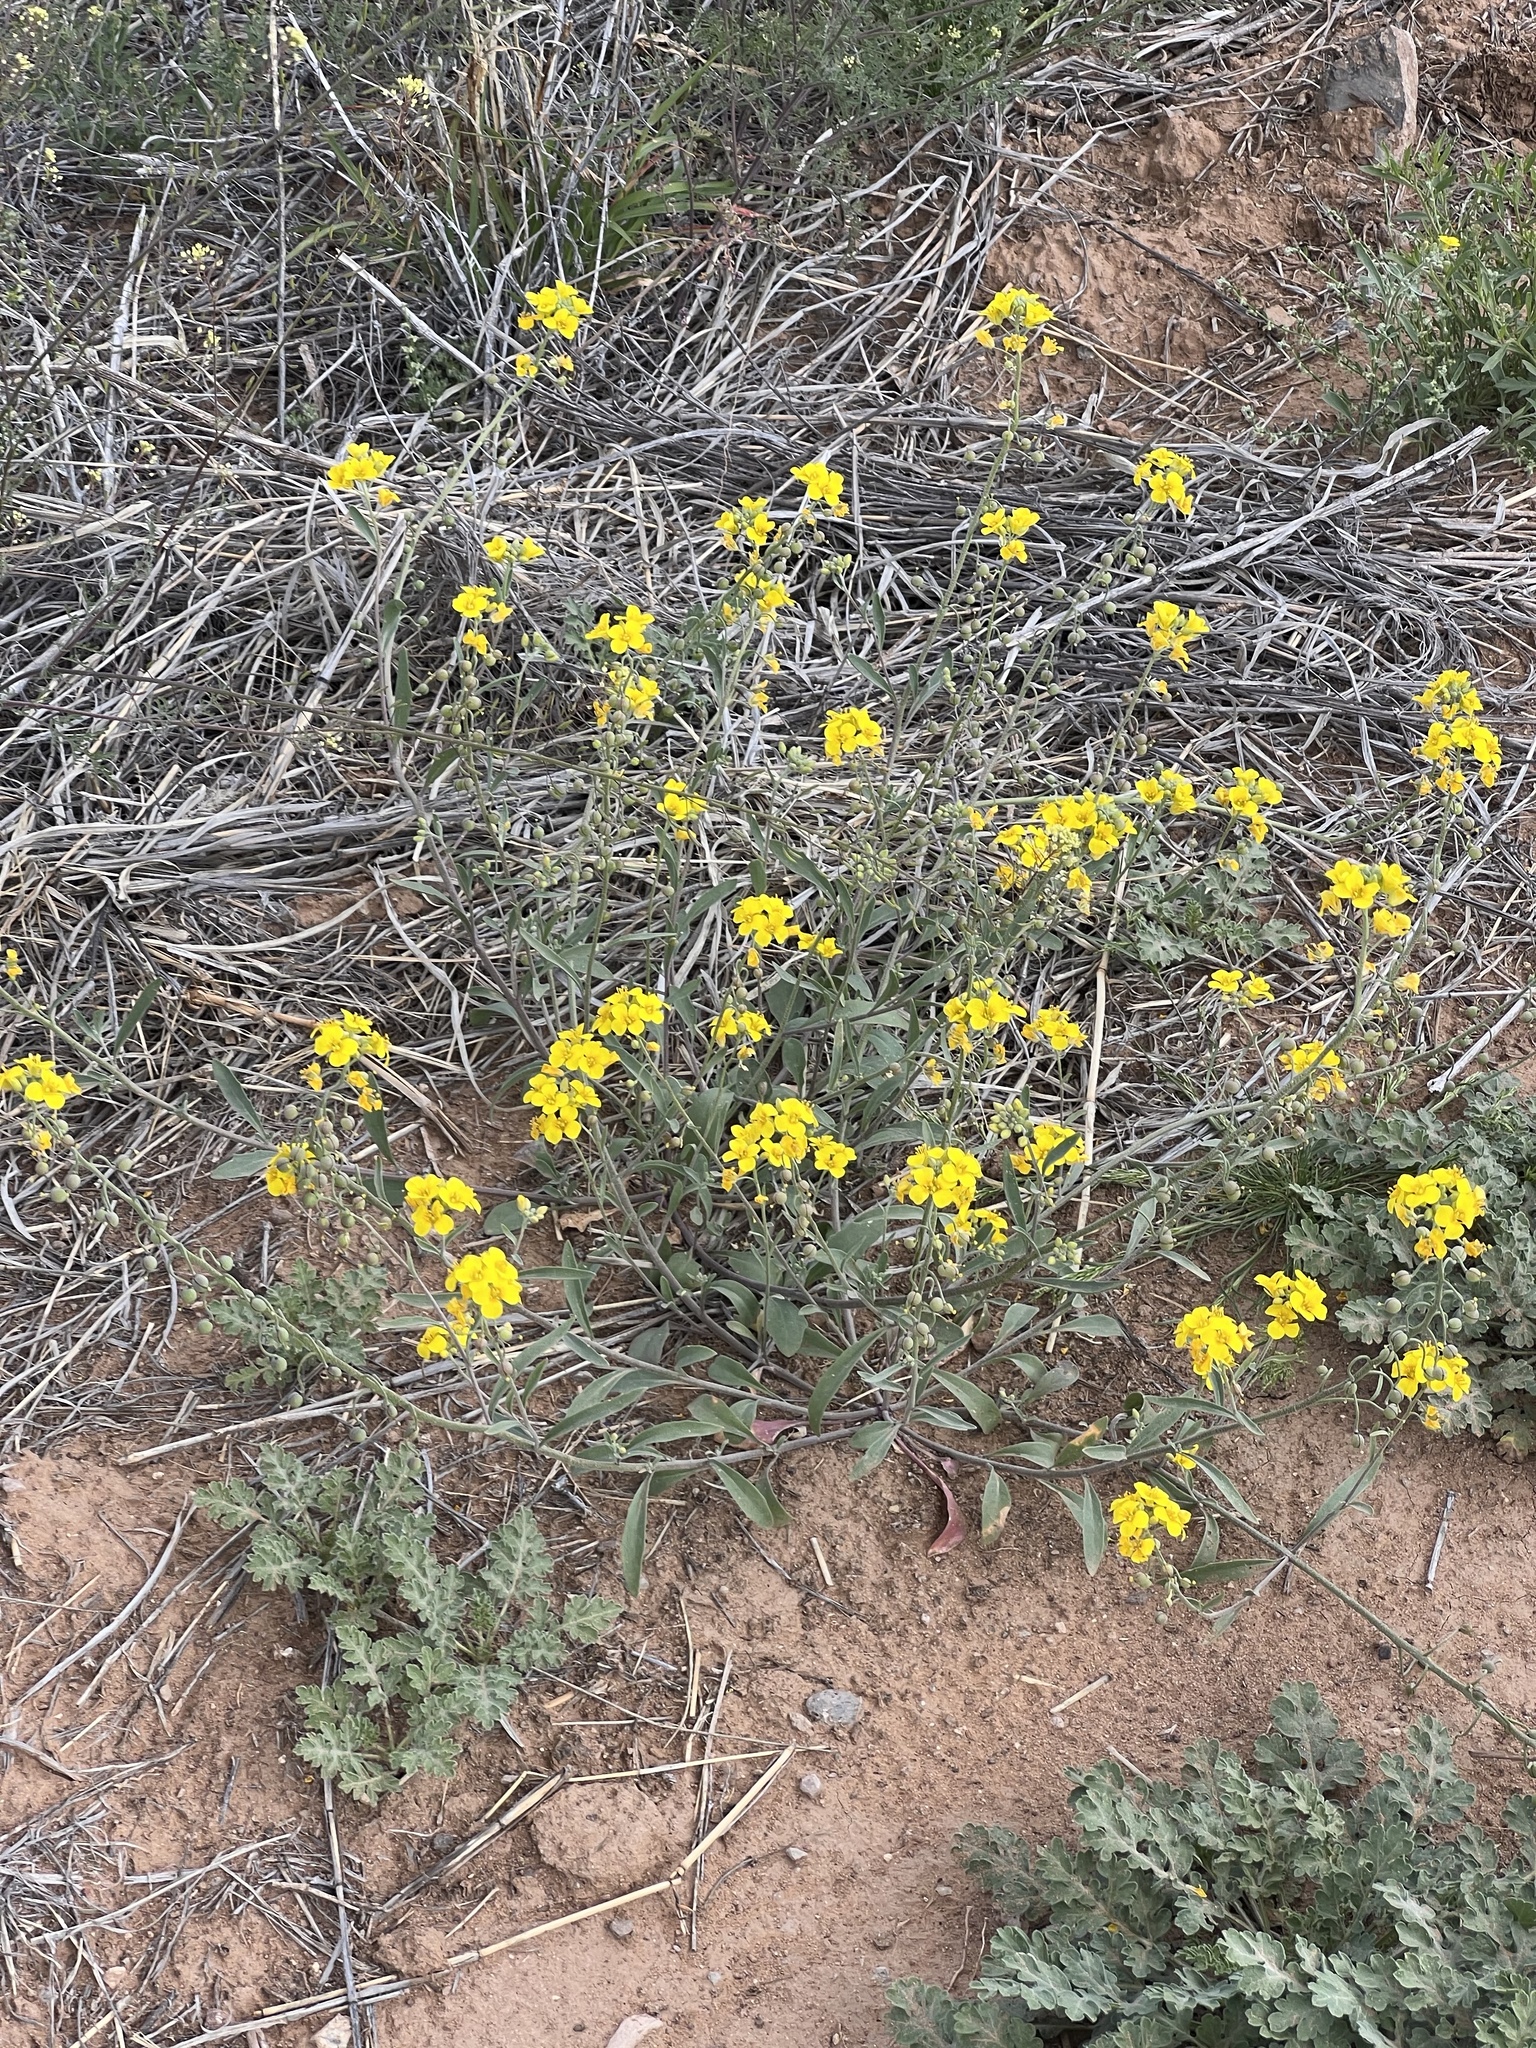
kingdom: Plantae
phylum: Tracheophyta
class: Magnoliopsida
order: Brassicales
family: Brassicaceae
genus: Physaria
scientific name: Physaria gordonii
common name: Gordon's bladderpod
